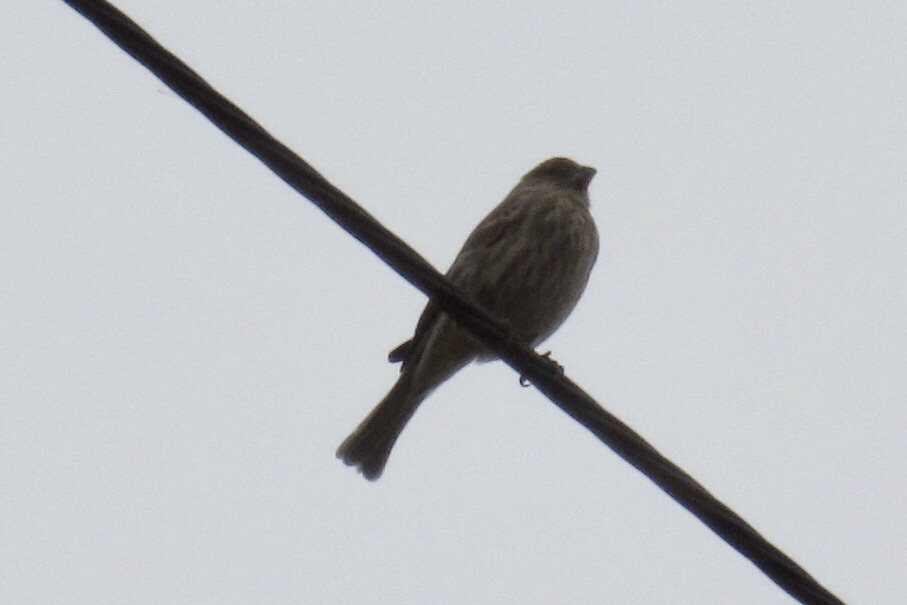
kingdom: Animalia
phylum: Chordata
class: Aves
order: Passeriformes
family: Fringillidae
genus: Haemorhous
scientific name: Haemorhous mexicanus
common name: House finch
